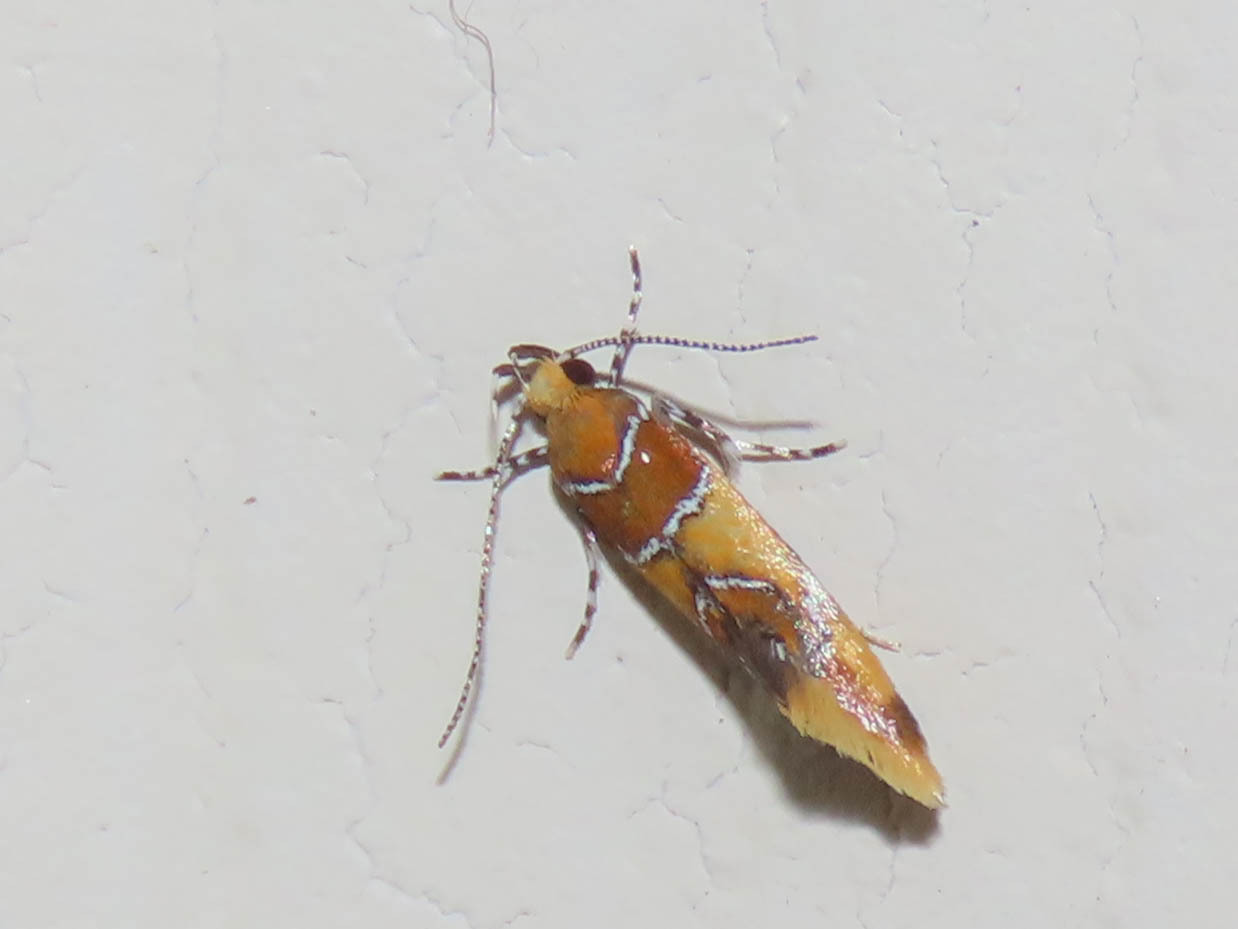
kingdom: Animalia
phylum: Arthropoda
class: Insecta
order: Lepidoptera
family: Oecophoridae
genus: Callima
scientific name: Callima argenticinctella
